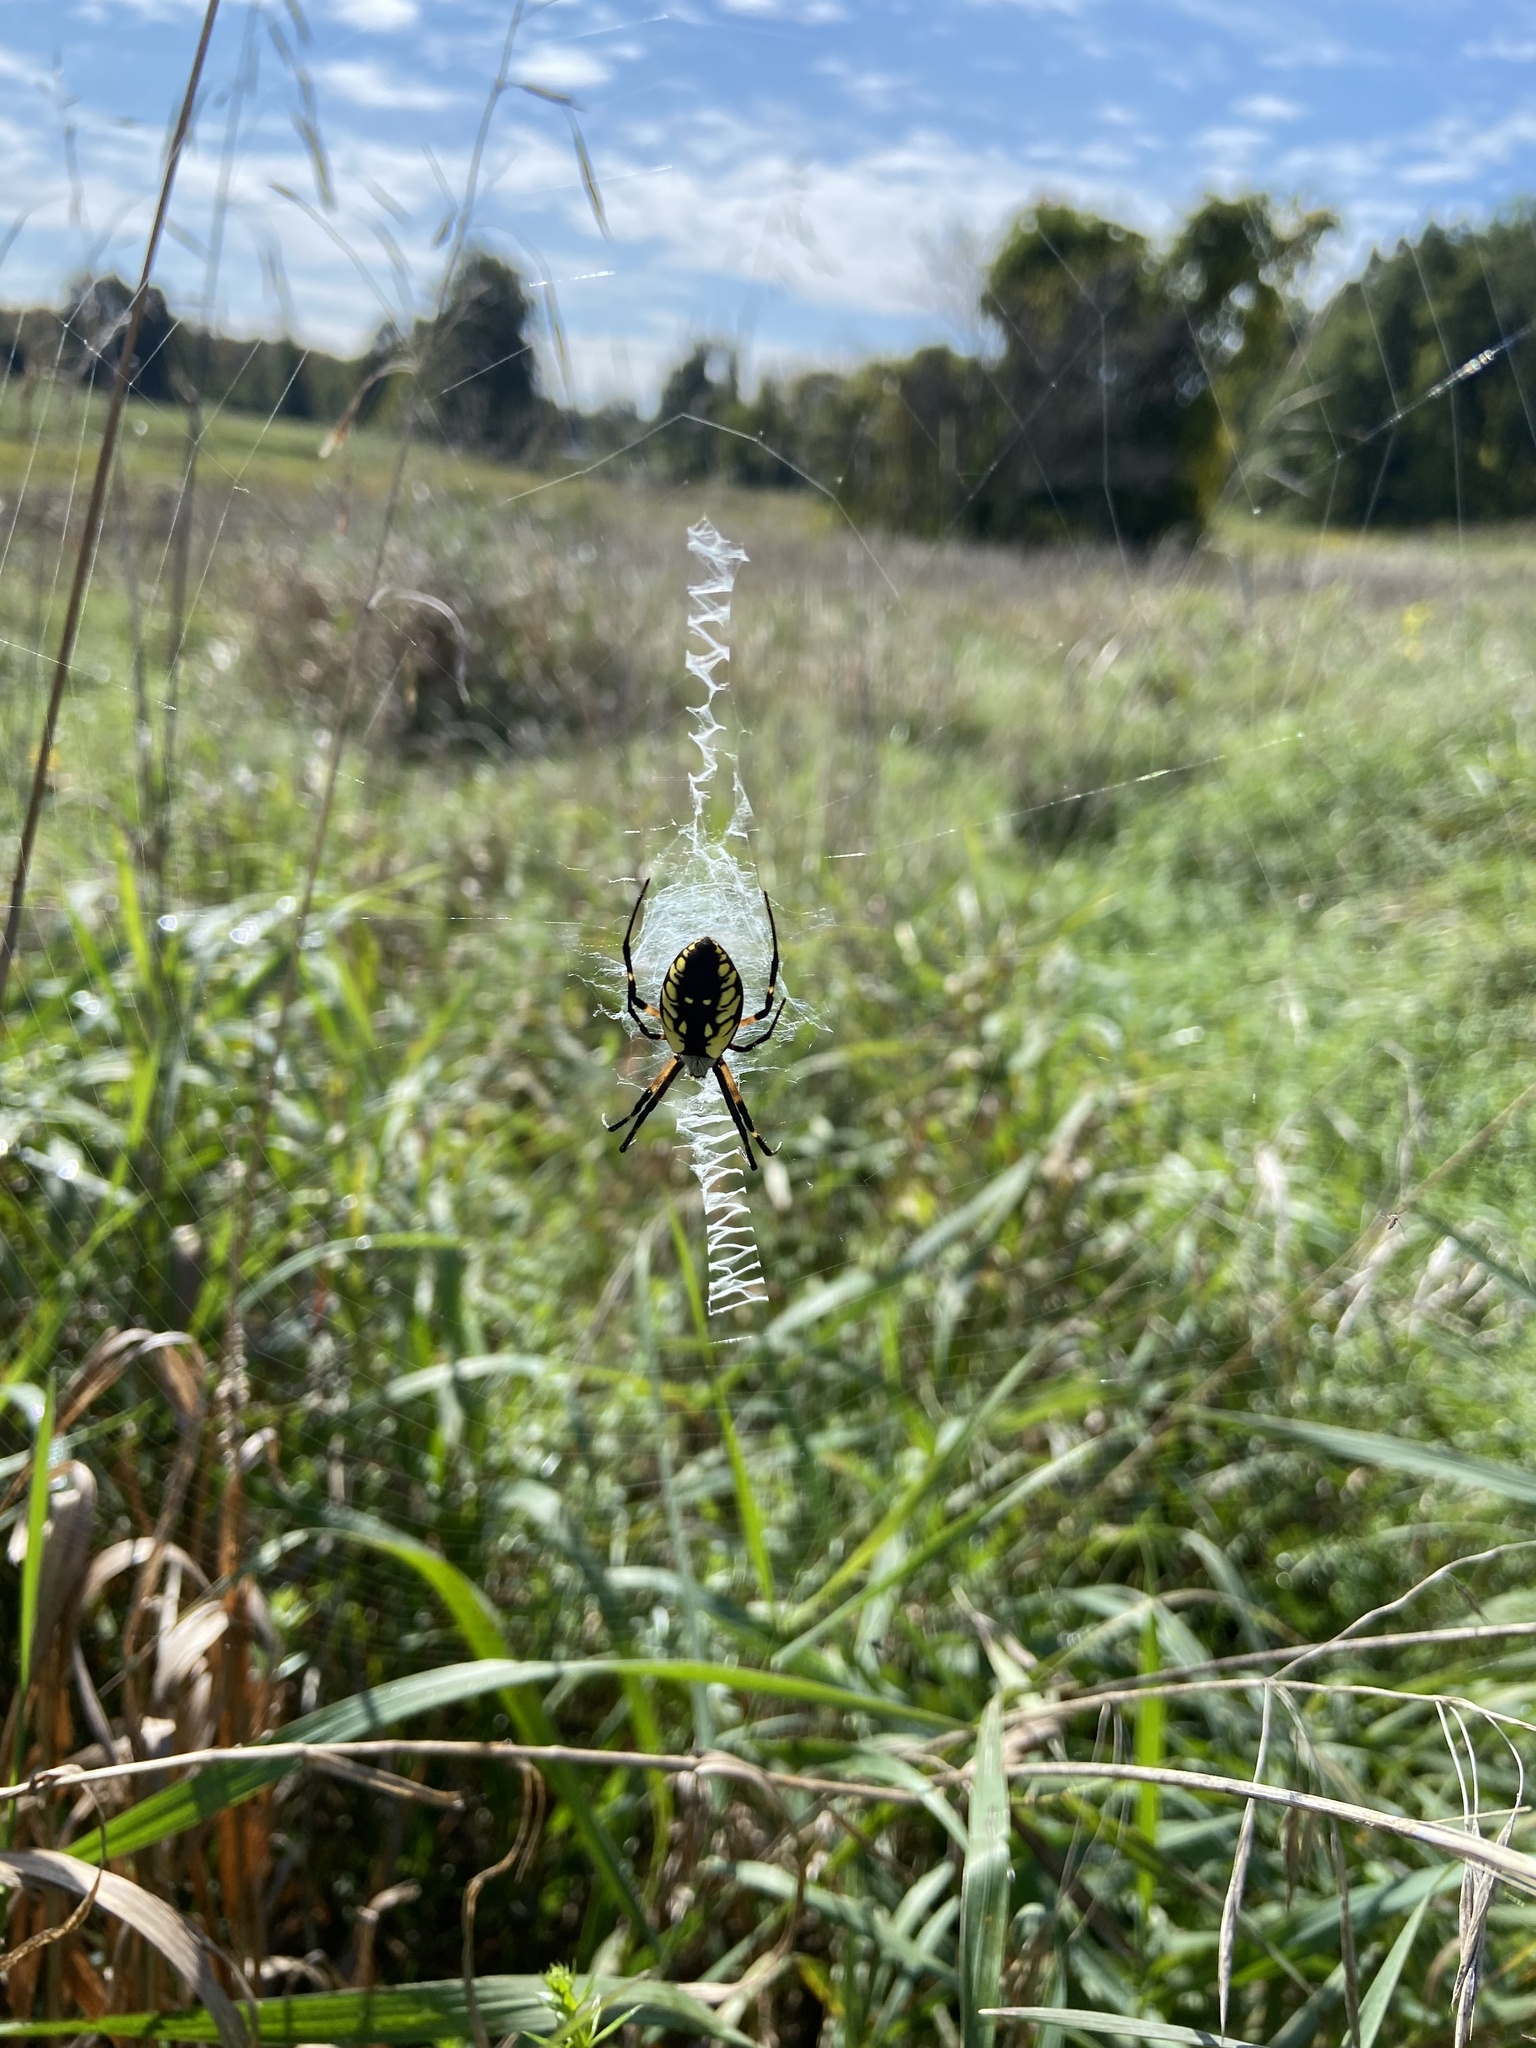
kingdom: Animalia
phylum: Arthropoda
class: Arachnida
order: Araneae
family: Araneidae
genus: Argiope
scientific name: Argiope aurantia
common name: Orb weavers
